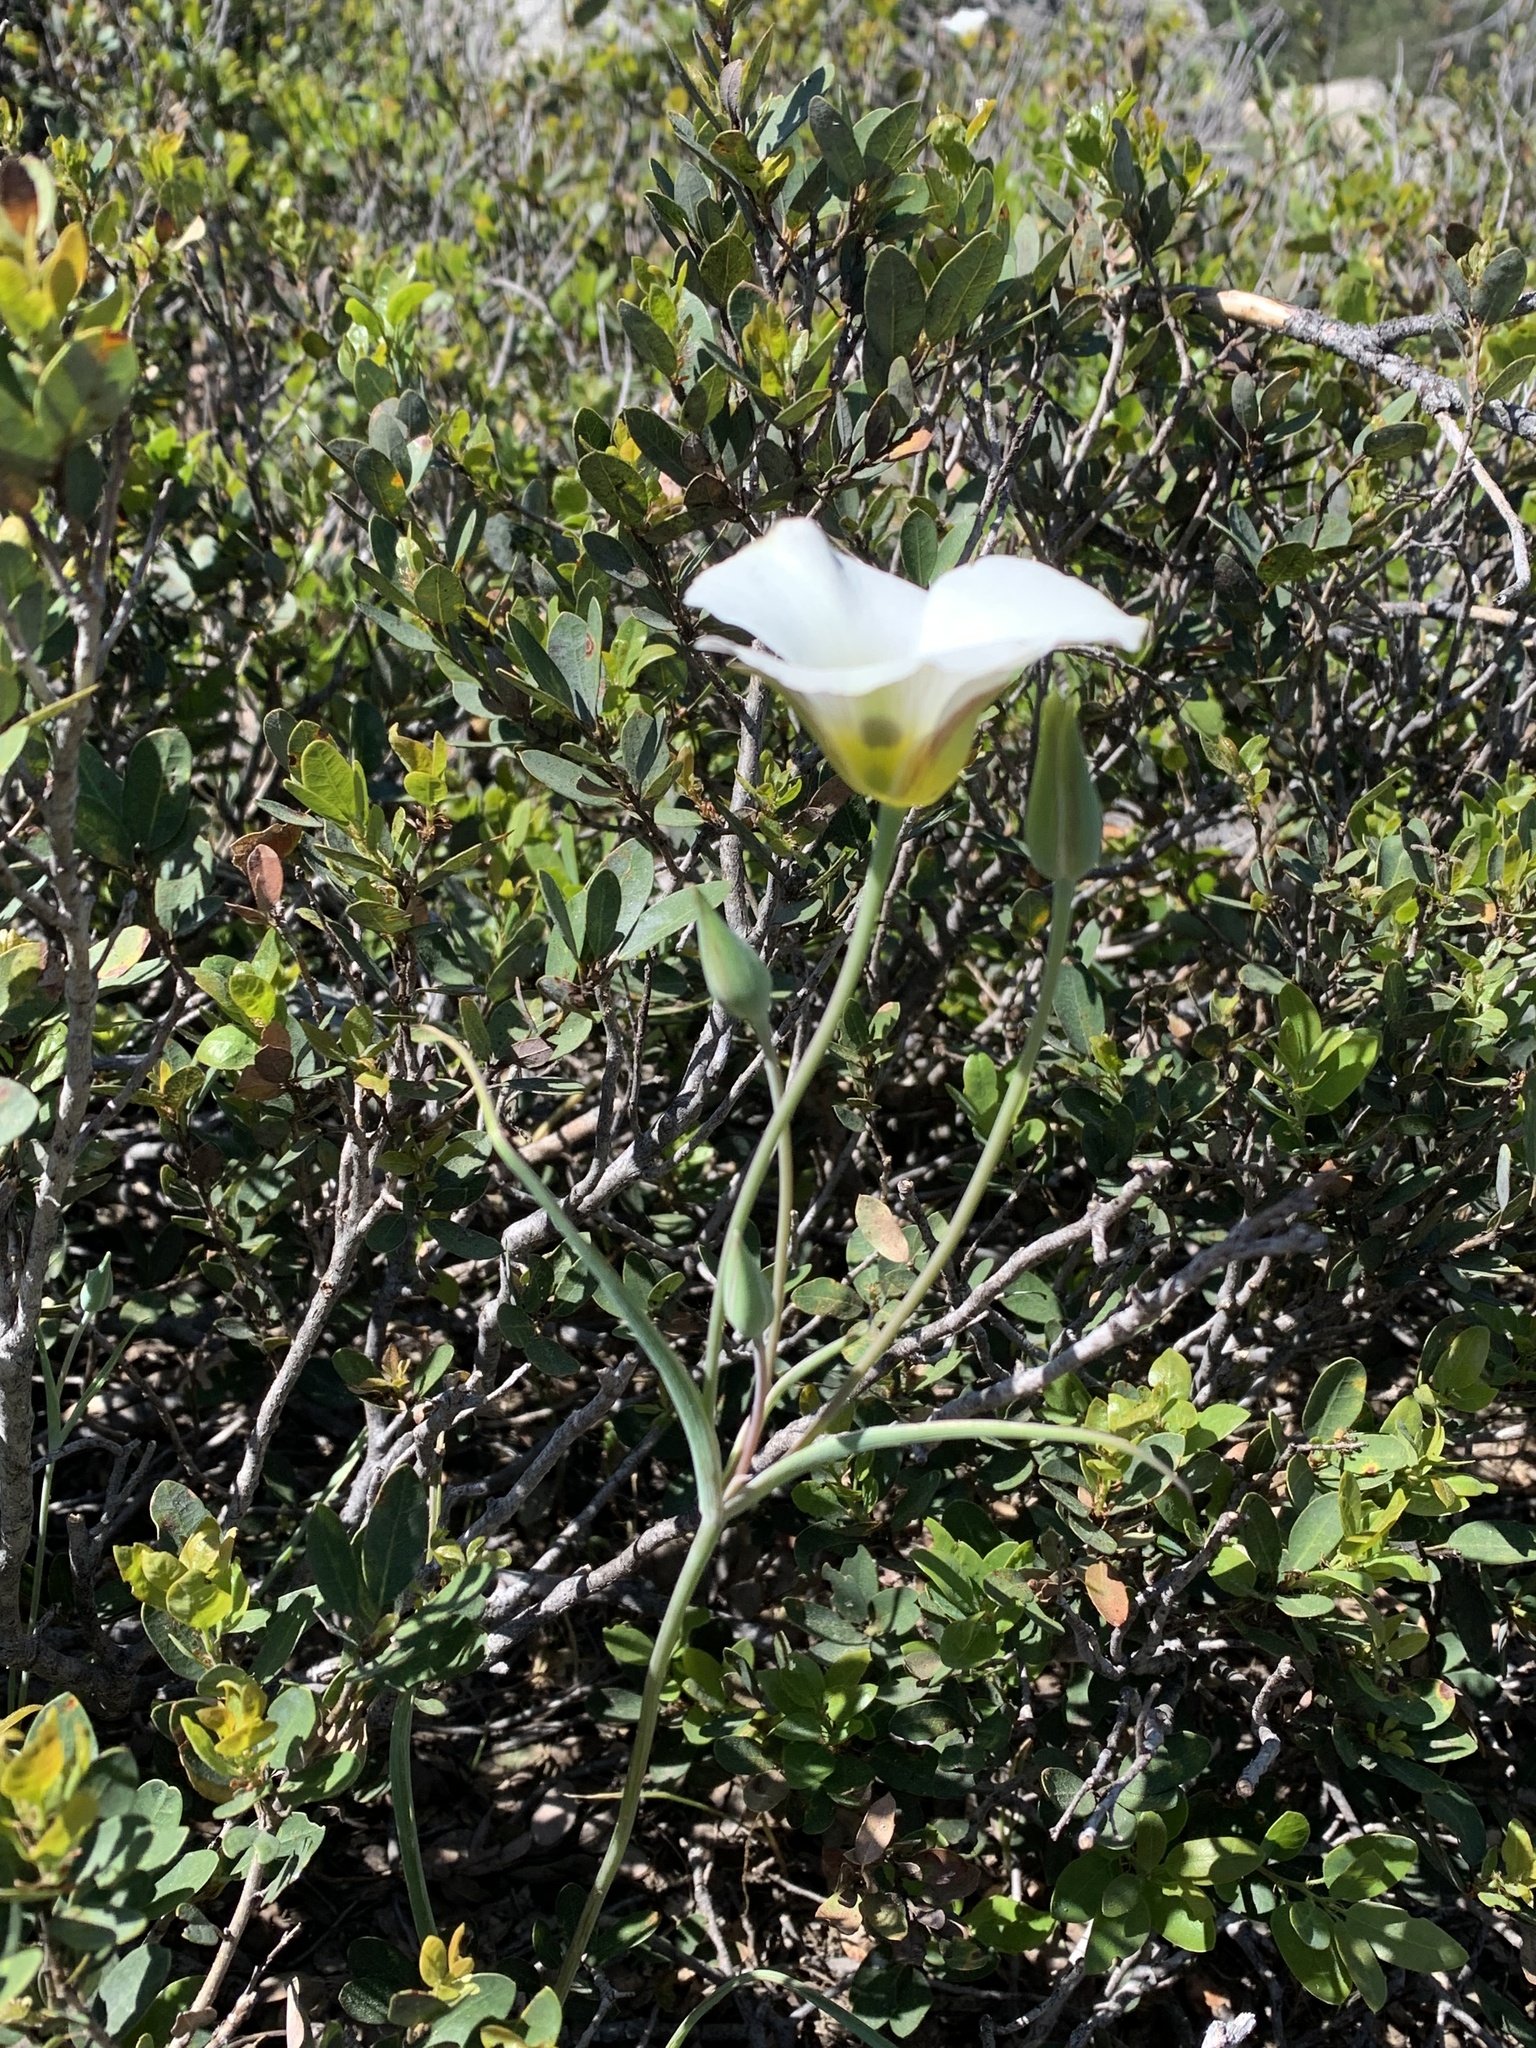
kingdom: Plantae
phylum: Tracheophyta
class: Liliopsida
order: Liliales
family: Liliaceae
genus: Calochortus
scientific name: Calochortus leichtlinii
